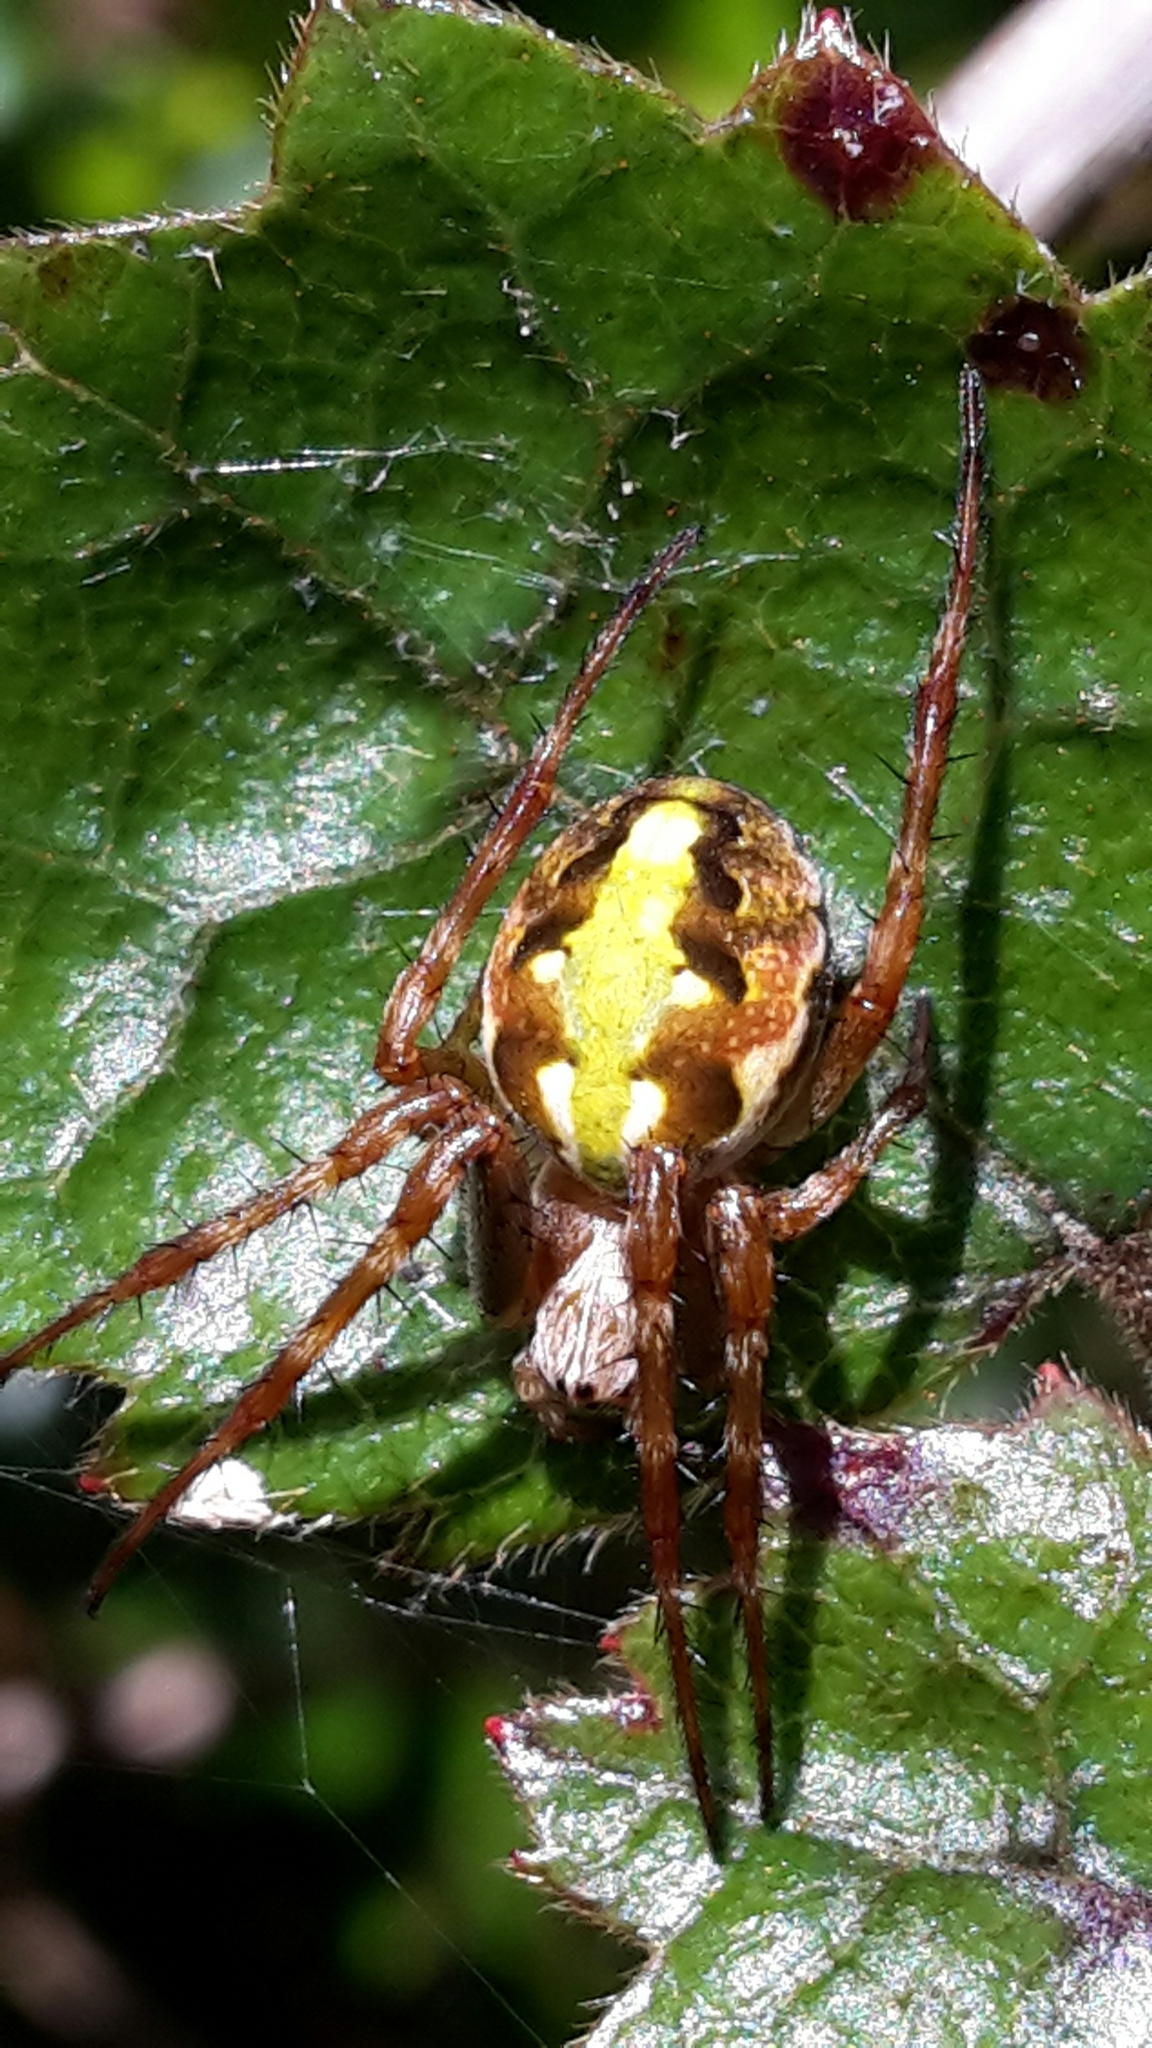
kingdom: Animalia
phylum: Arthropoda
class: Arachnida
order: Araneae
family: Araneidae
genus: Novaranea
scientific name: Novaranea queribunda
